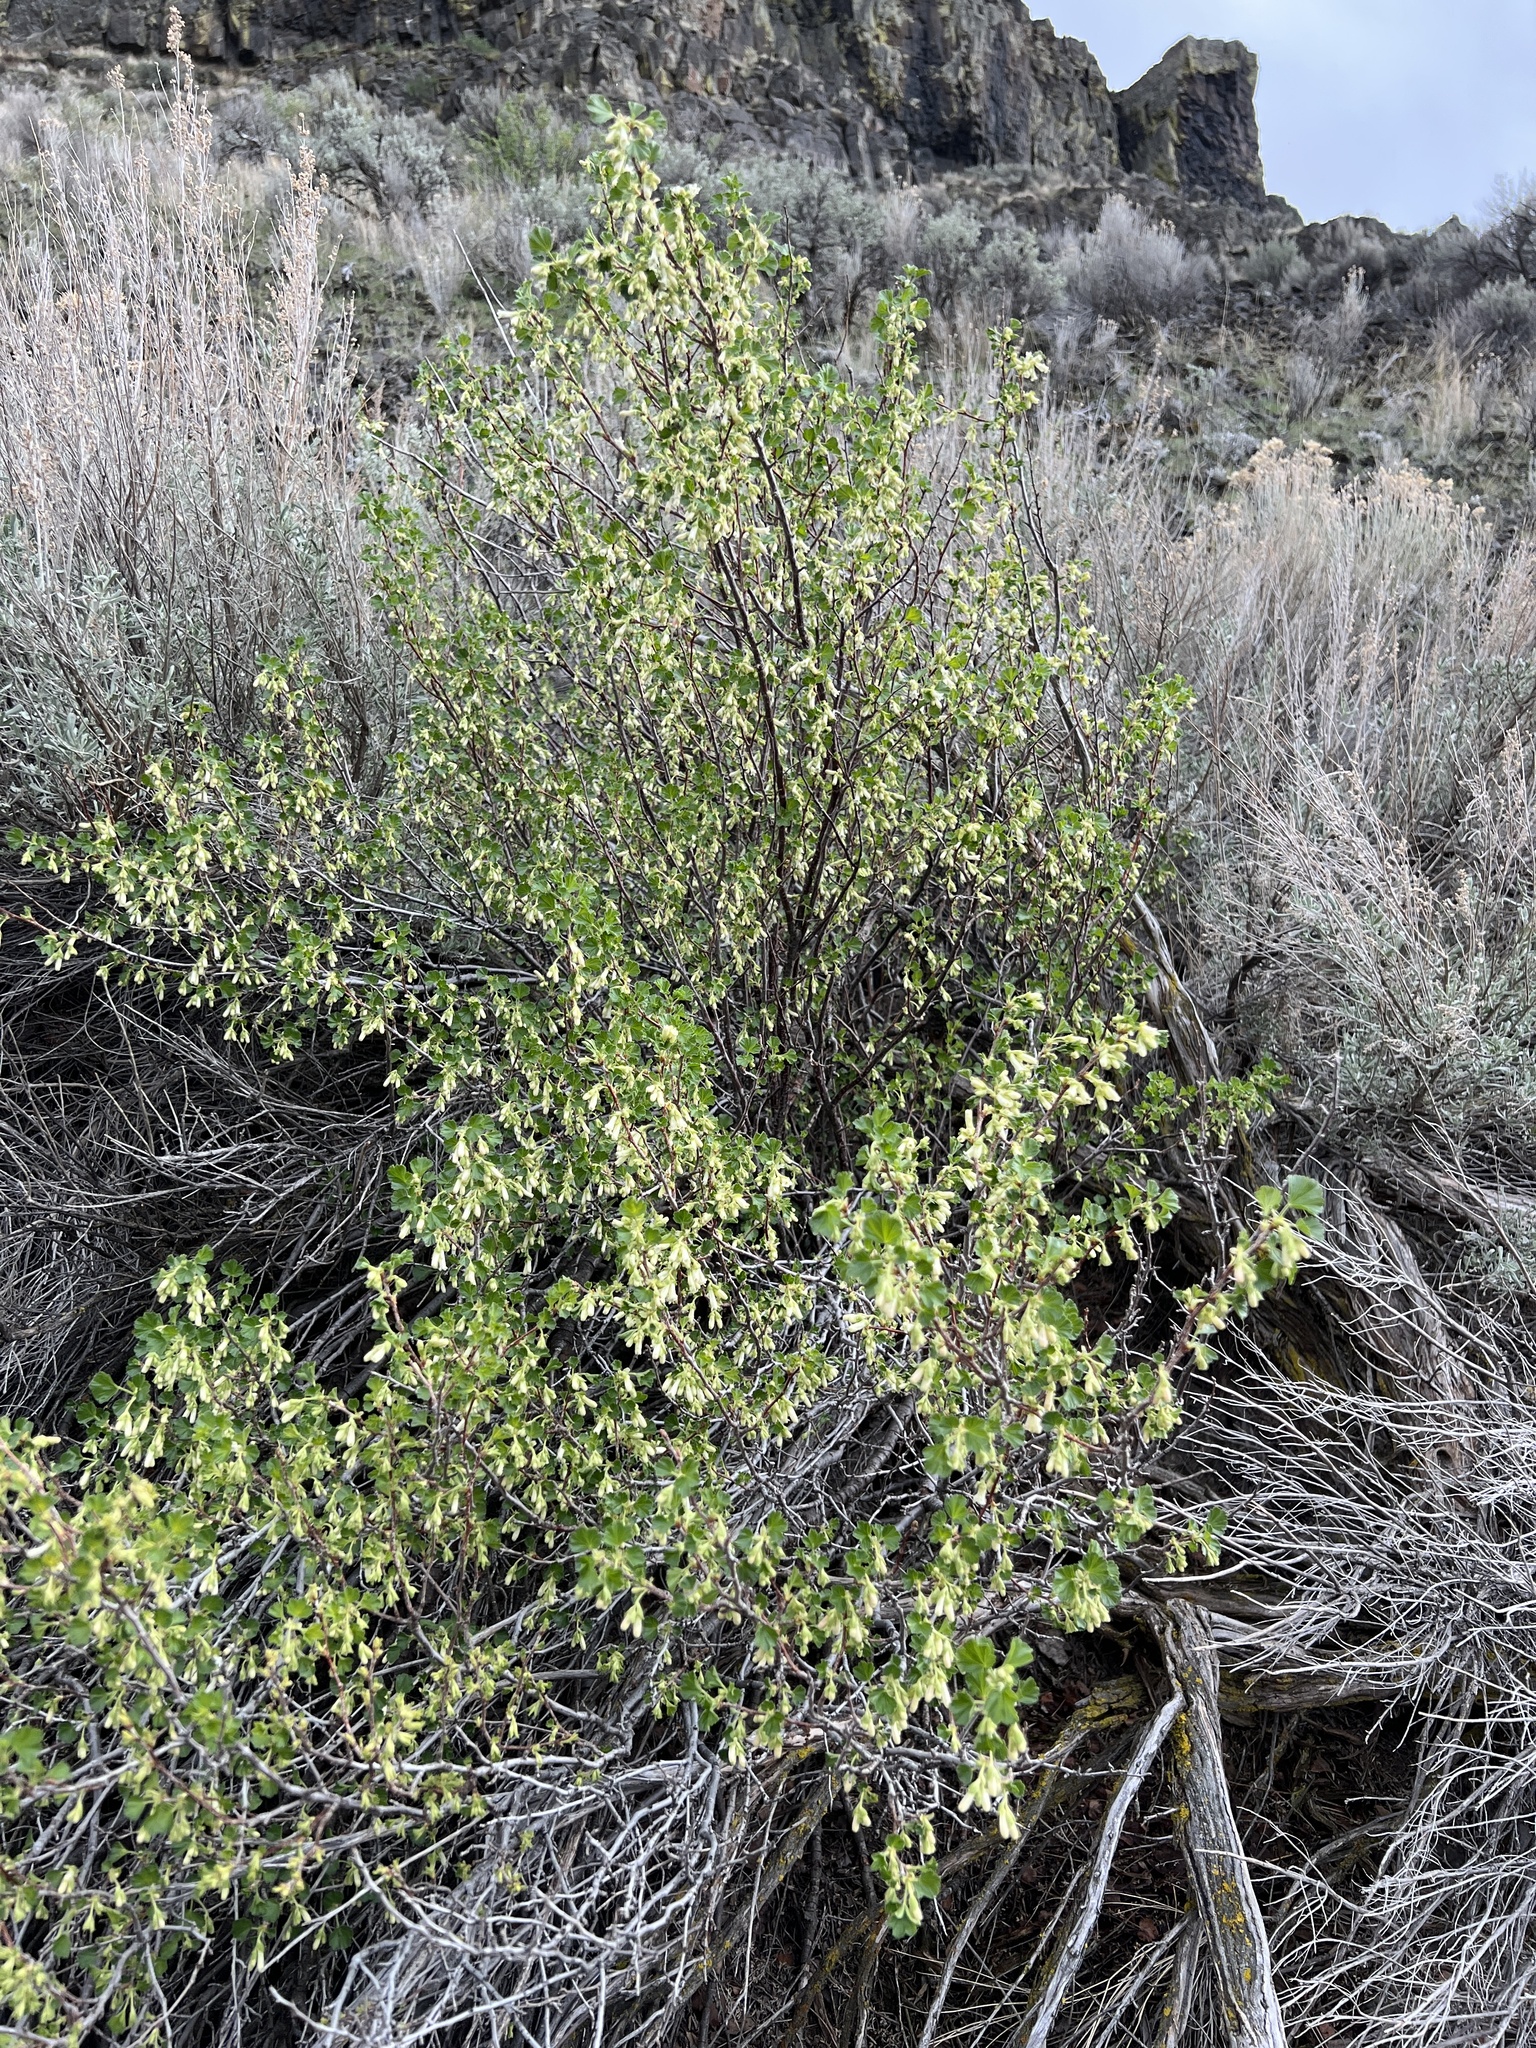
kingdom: Plantae
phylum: Tracheophyta
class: Magnoliopsida
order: Saxifragales
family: Grossulariaceae
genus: Ribes
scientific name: Ribes cereum
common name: Wax currant
